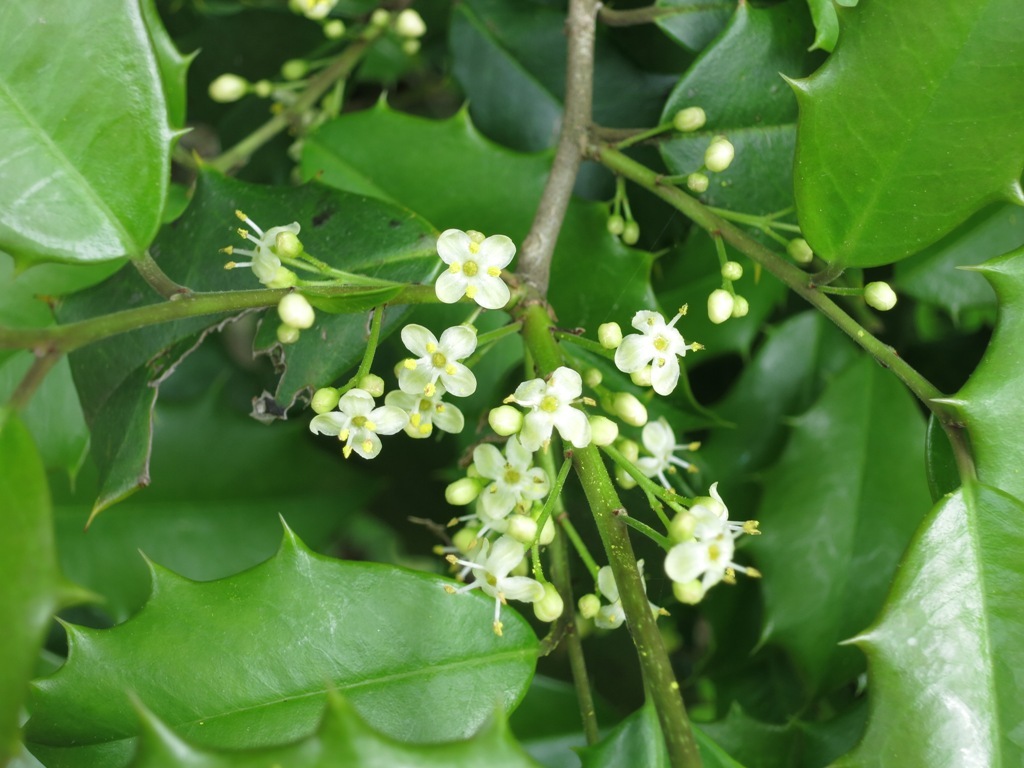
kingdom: Plantae
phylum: Tracheophyta
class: Magnoliopsida
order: Aquifoliales
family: Aquifoliaceae
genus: Ilex
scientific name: Ilex opaca
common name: American holly
